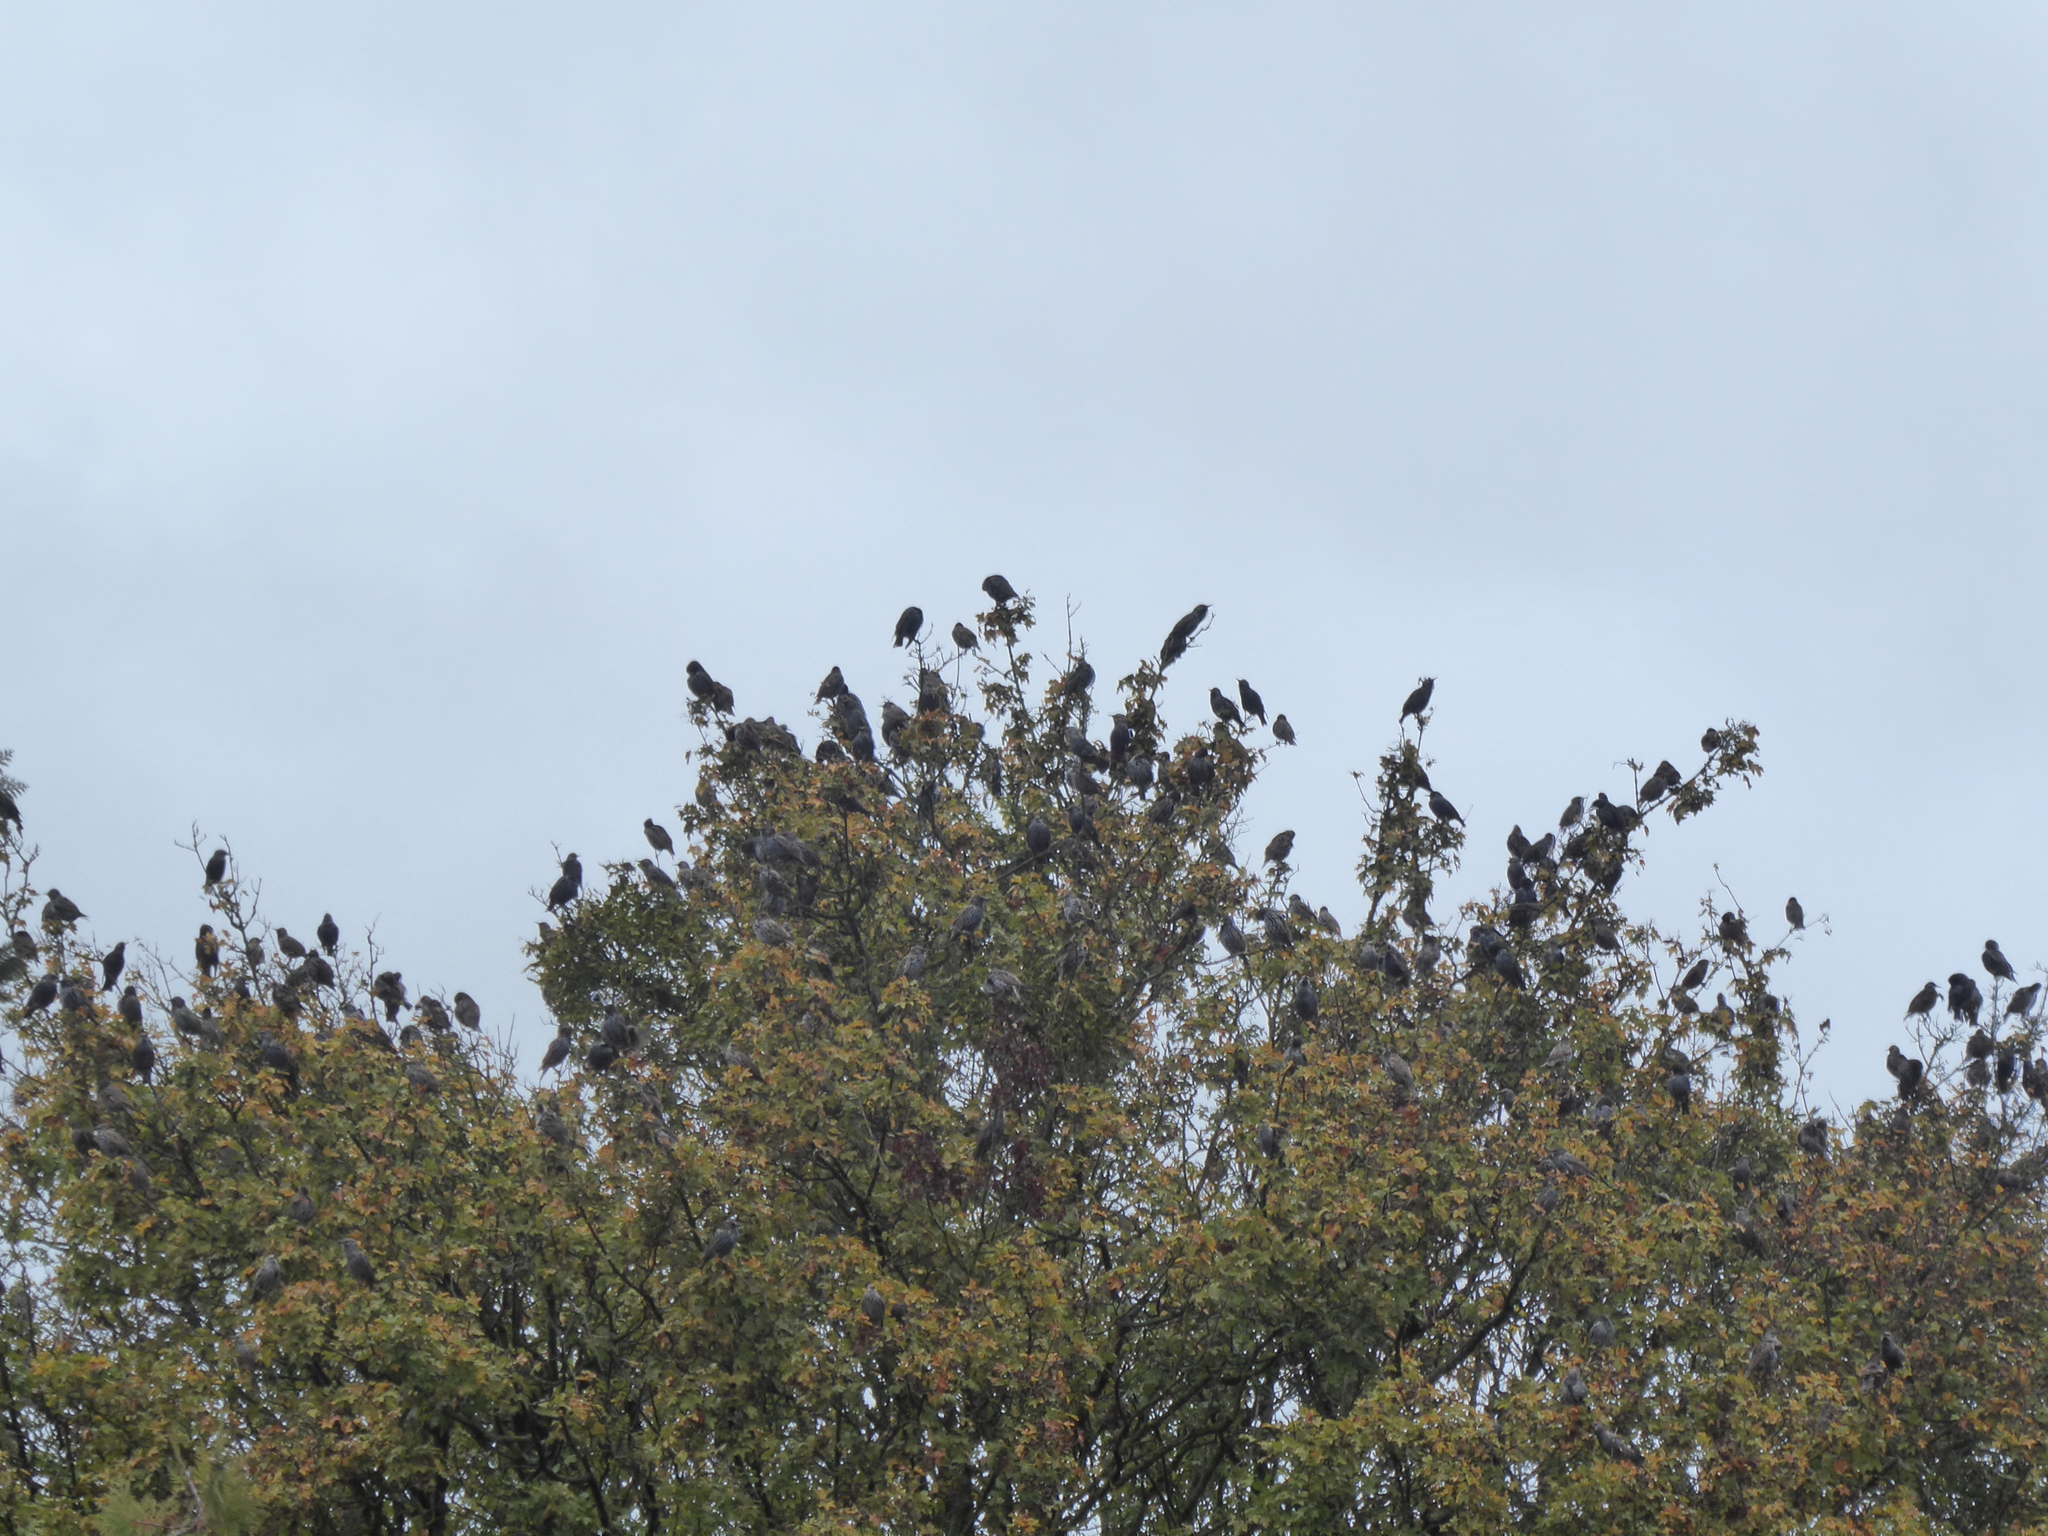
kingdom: Animalia
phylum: Chordata
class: Aves
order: Passeriformes
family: Sturnidae
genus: Sturnus
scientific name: Sturnus vulgaris
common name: Common starling
